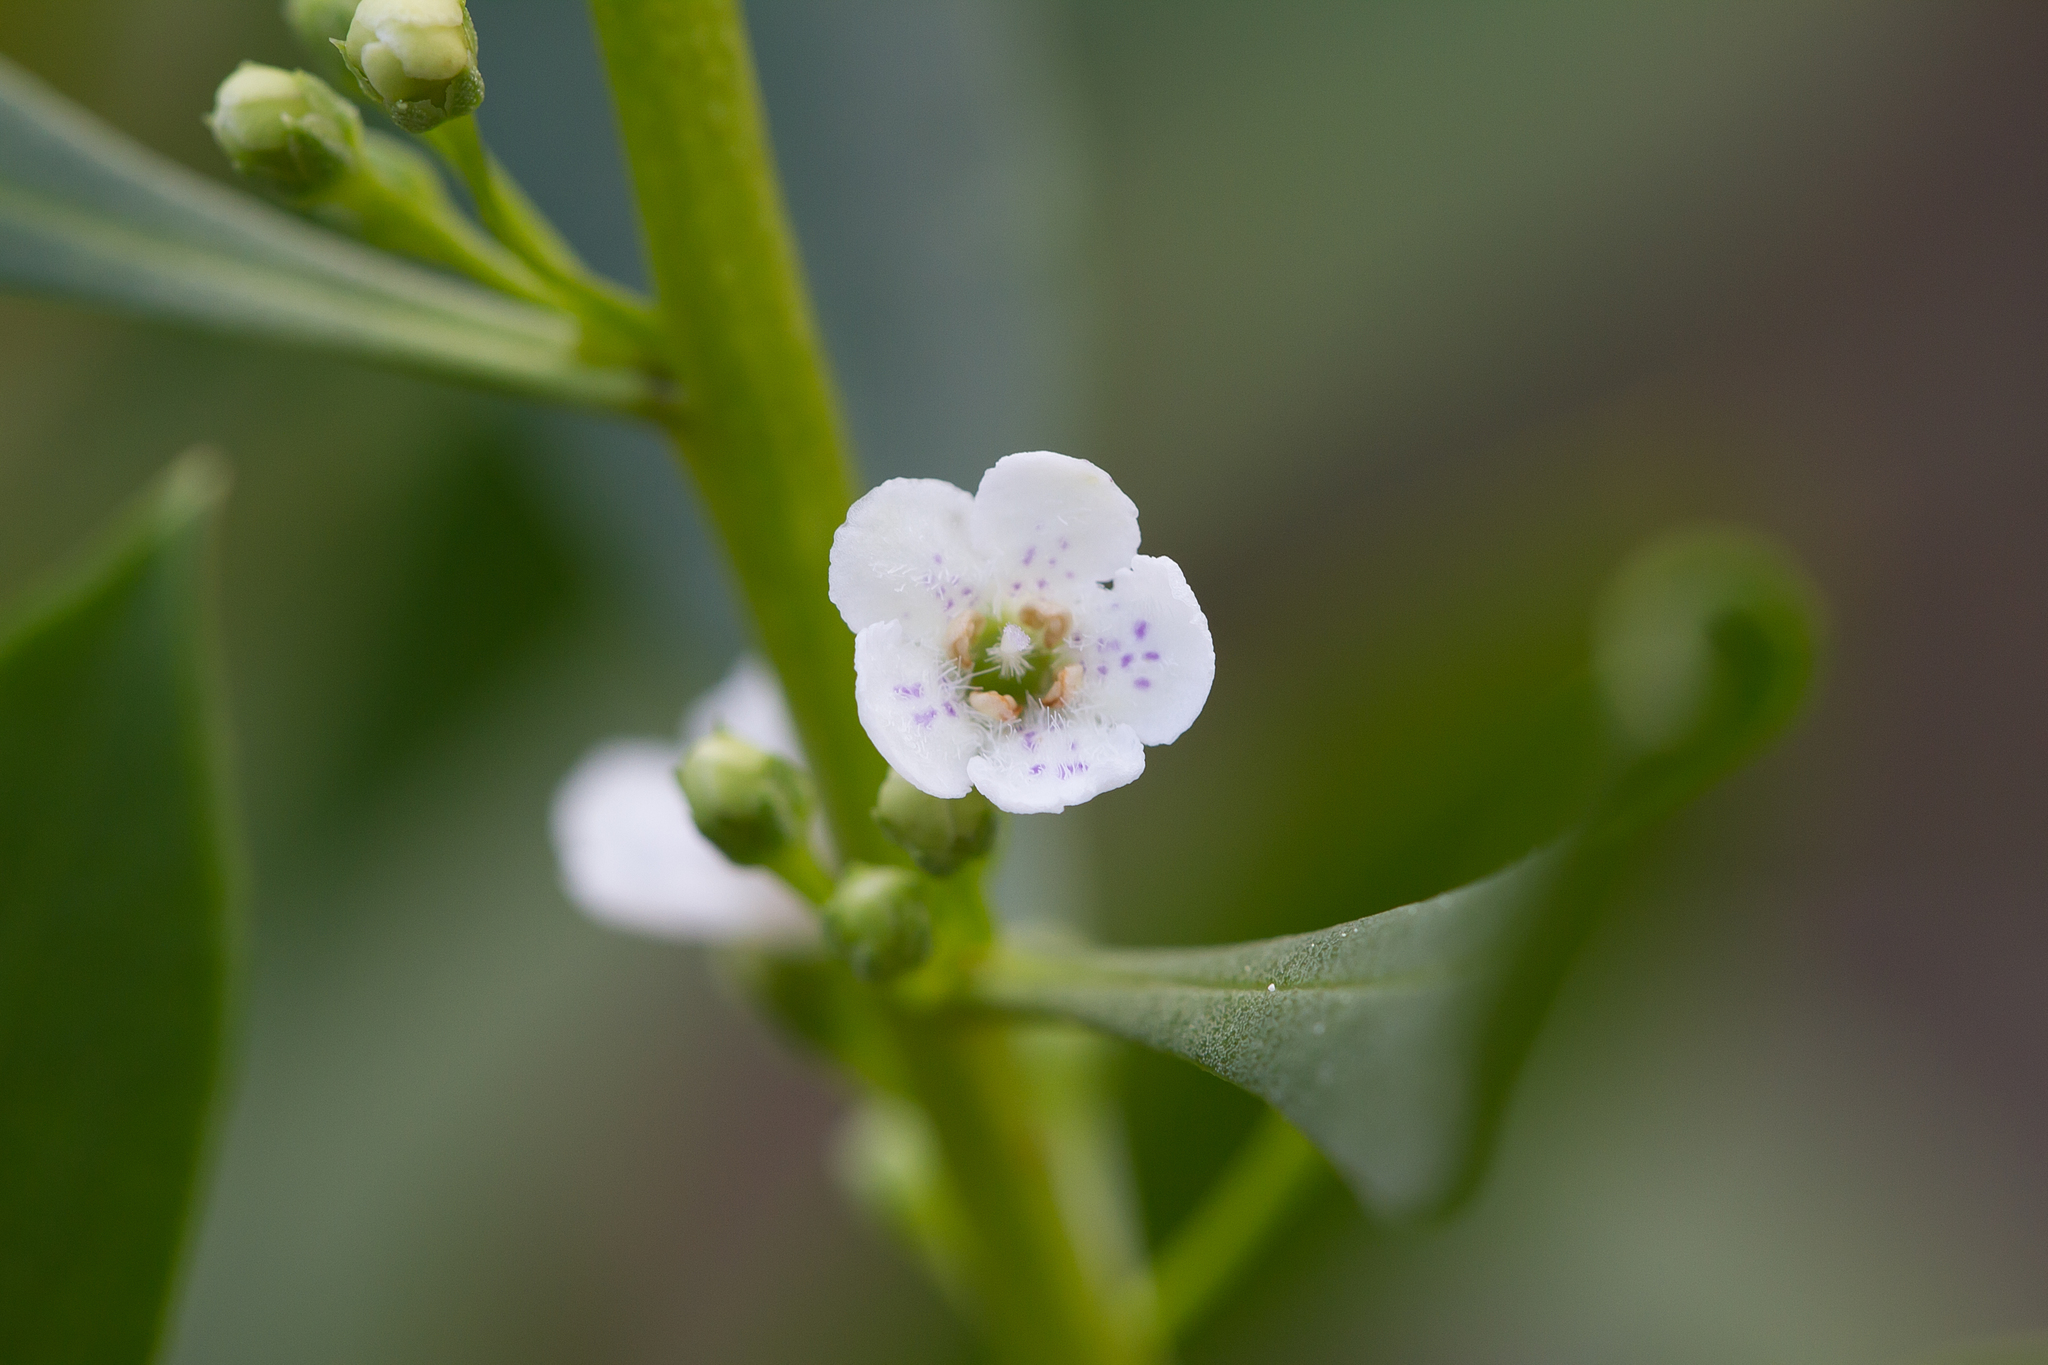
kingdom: Plantae
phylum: Tracheophyta
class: Magnoliopsida
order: Lamiales
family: Scrophulariaceae
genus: Myoporum
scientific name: Myoporum insulare
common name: Common boobialla
